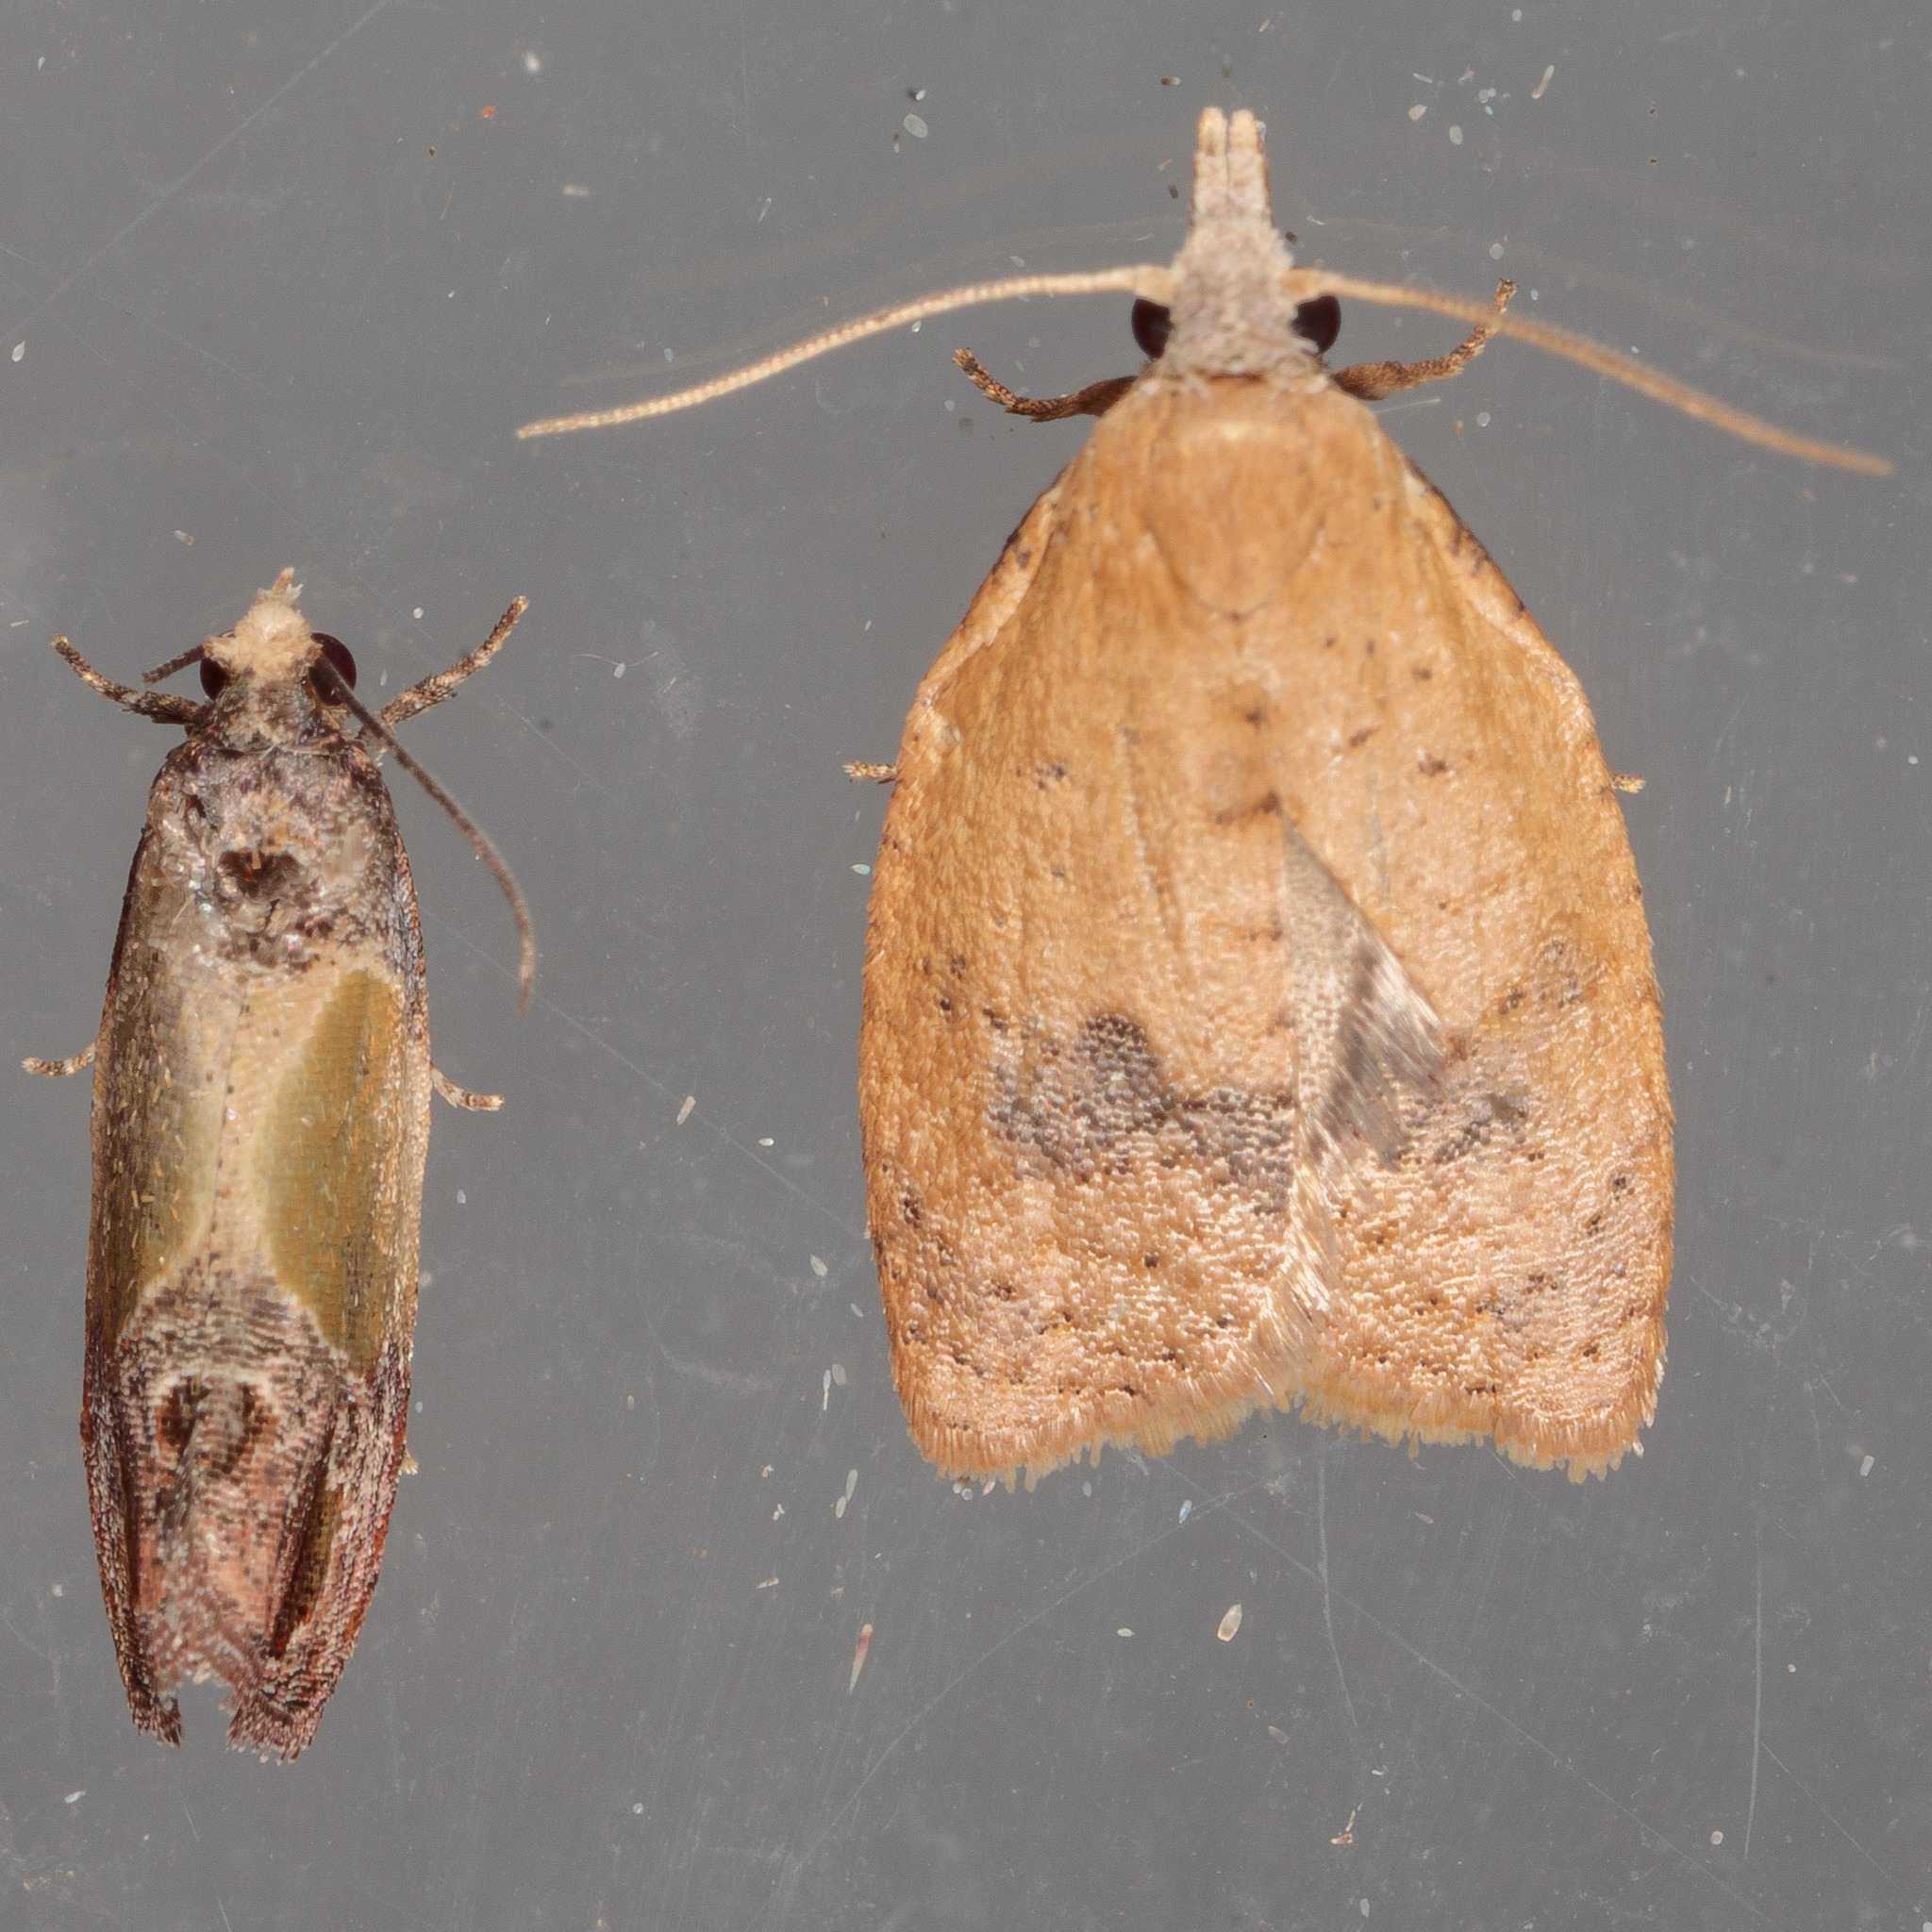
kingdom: Animalia
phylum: Arthropoda
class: Insecta
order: Lepidoptera
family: Tortricidae
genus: Sparganothoides
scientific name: Sparganothoides lentiginosana
